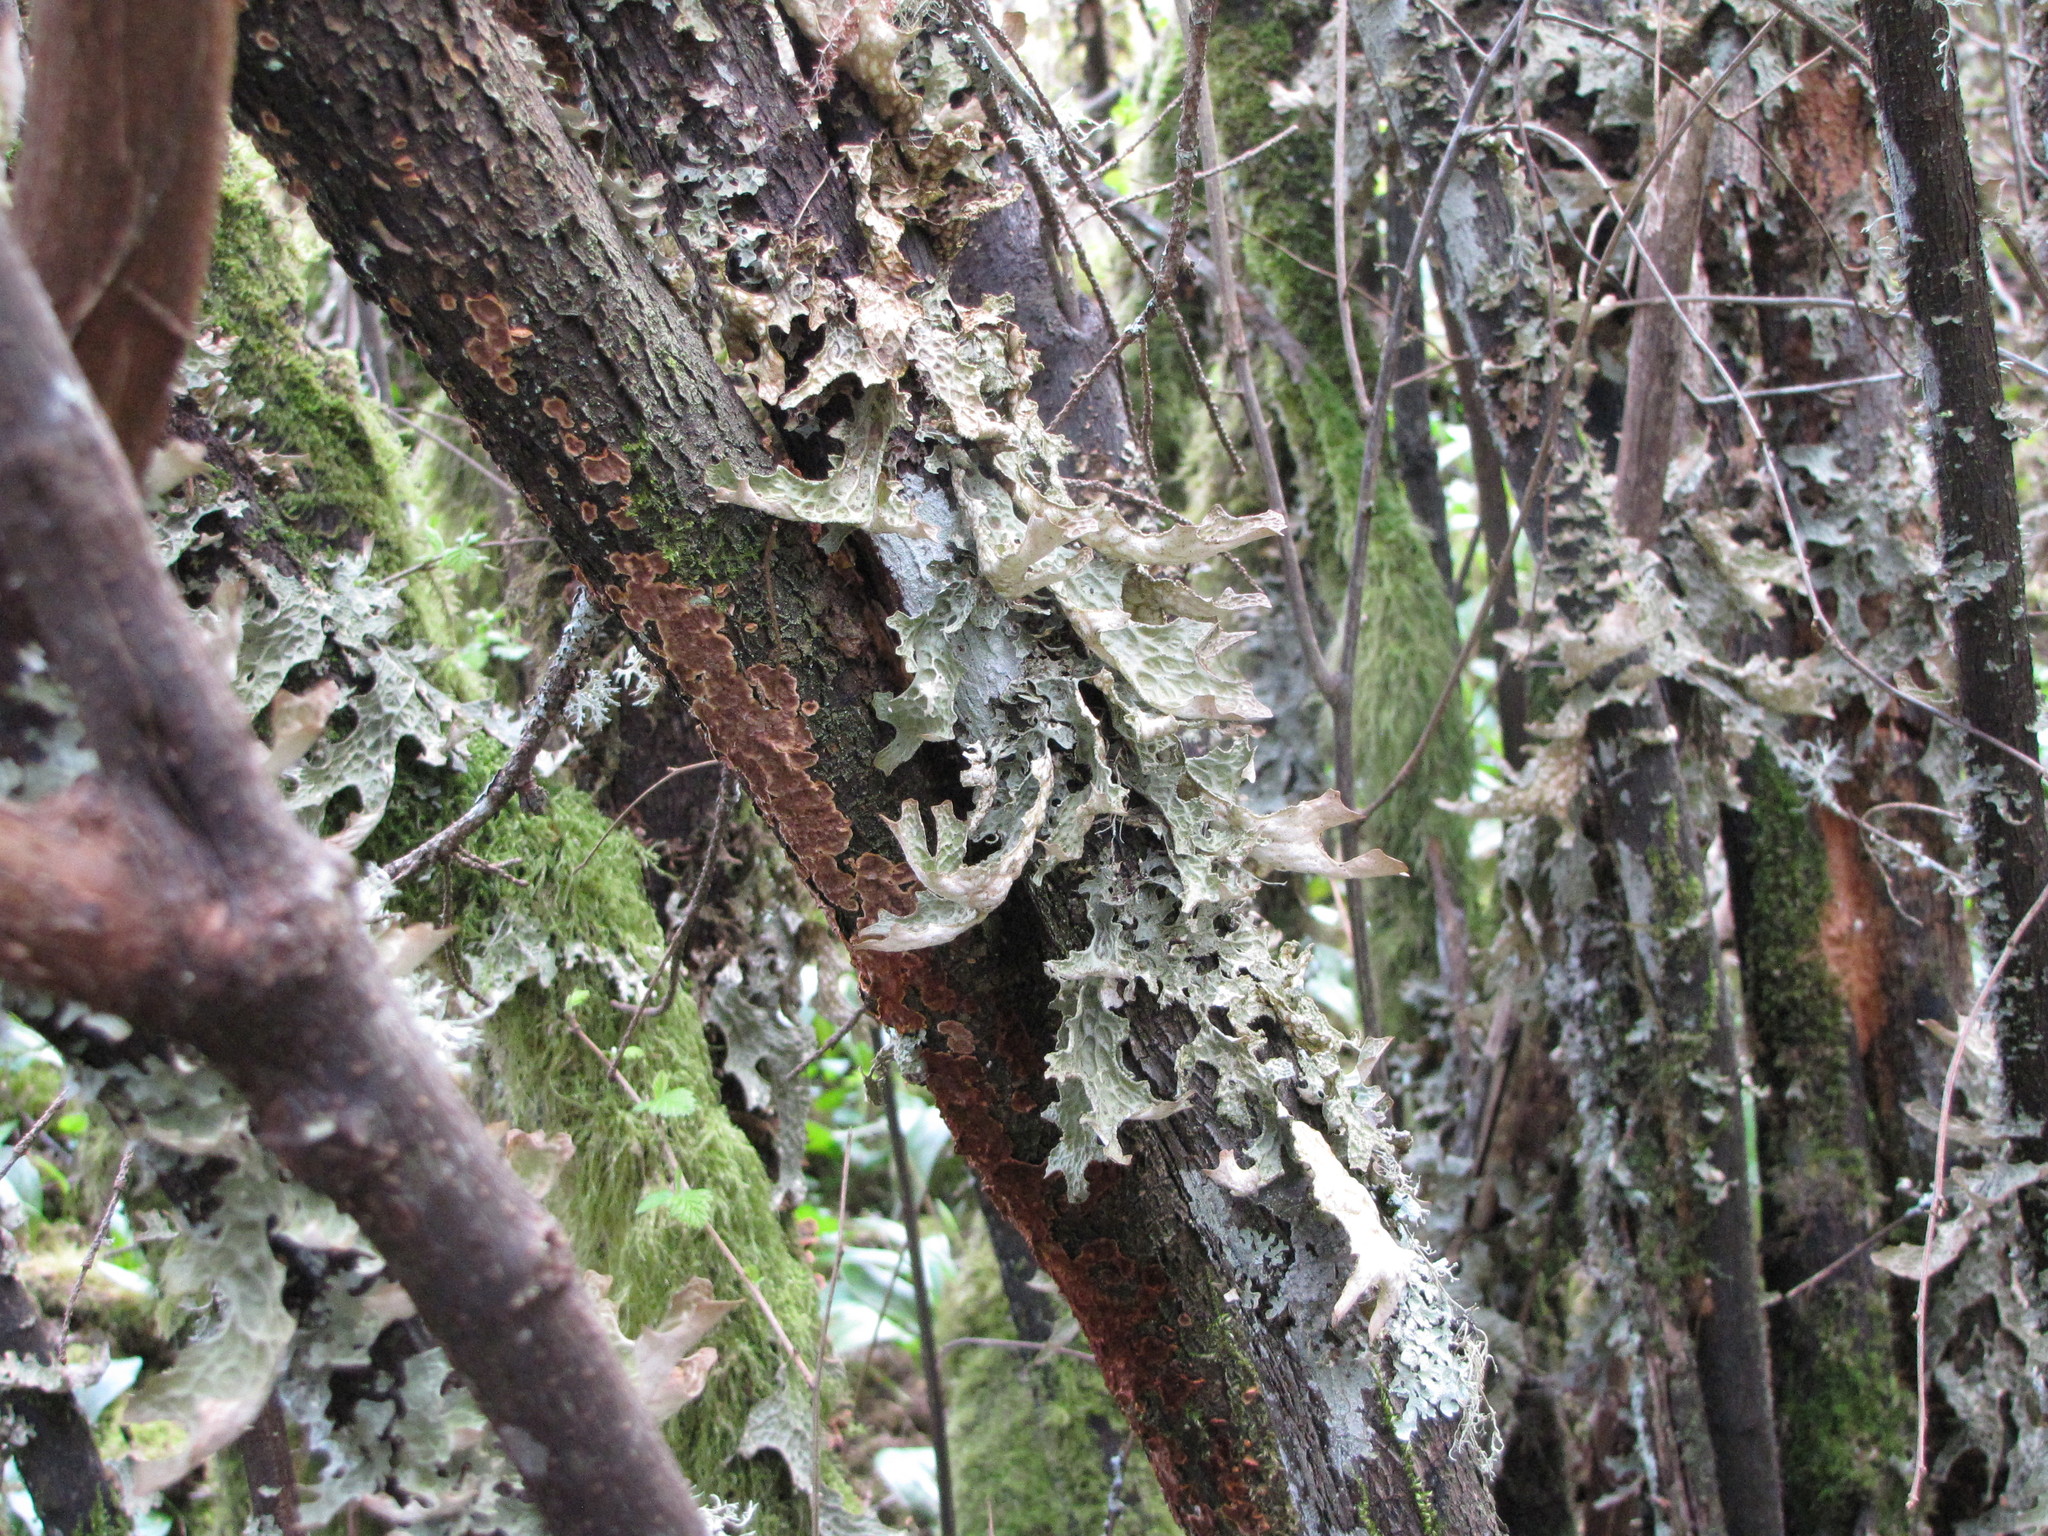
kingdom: Fungi
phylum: Ascomycota
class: Lecanoromycetes
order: Peltigerales
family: Lobariaceae
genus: Lobaria
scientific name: Lobaria pulmonaria
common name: Lungwort
